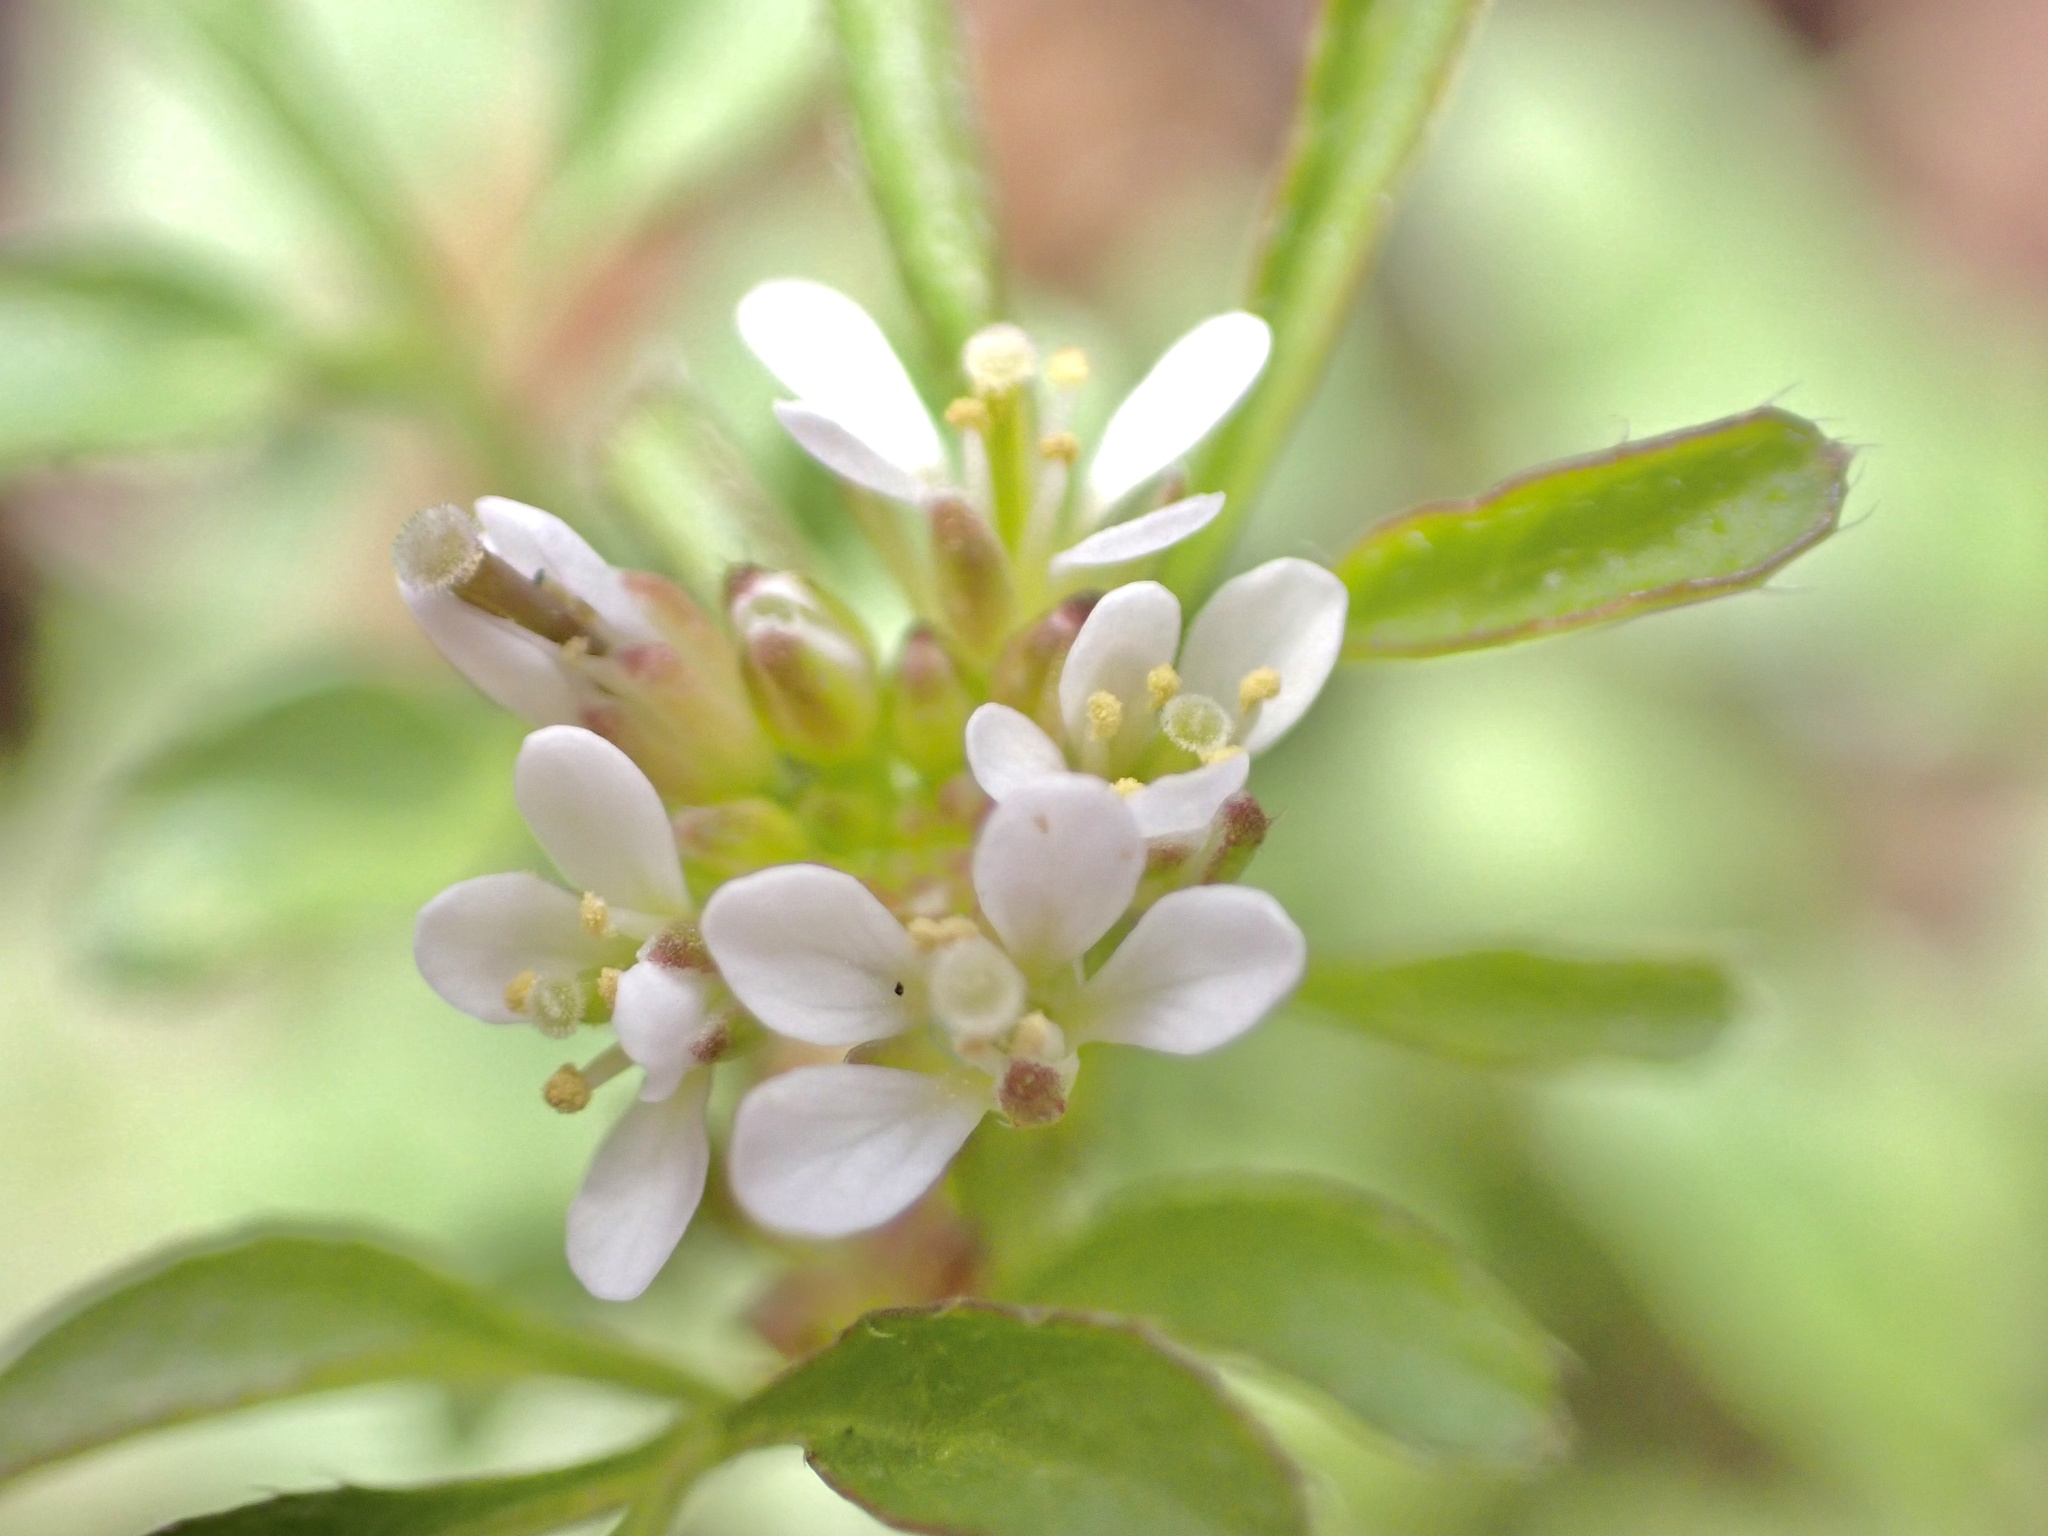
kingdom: Plantae
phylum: Tracheophyta
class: Magnoliopsida
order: Brassicales
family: Brassicaceae
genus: Cardamine
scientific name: Cardamine hirsuta
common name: Hairy bittercress
